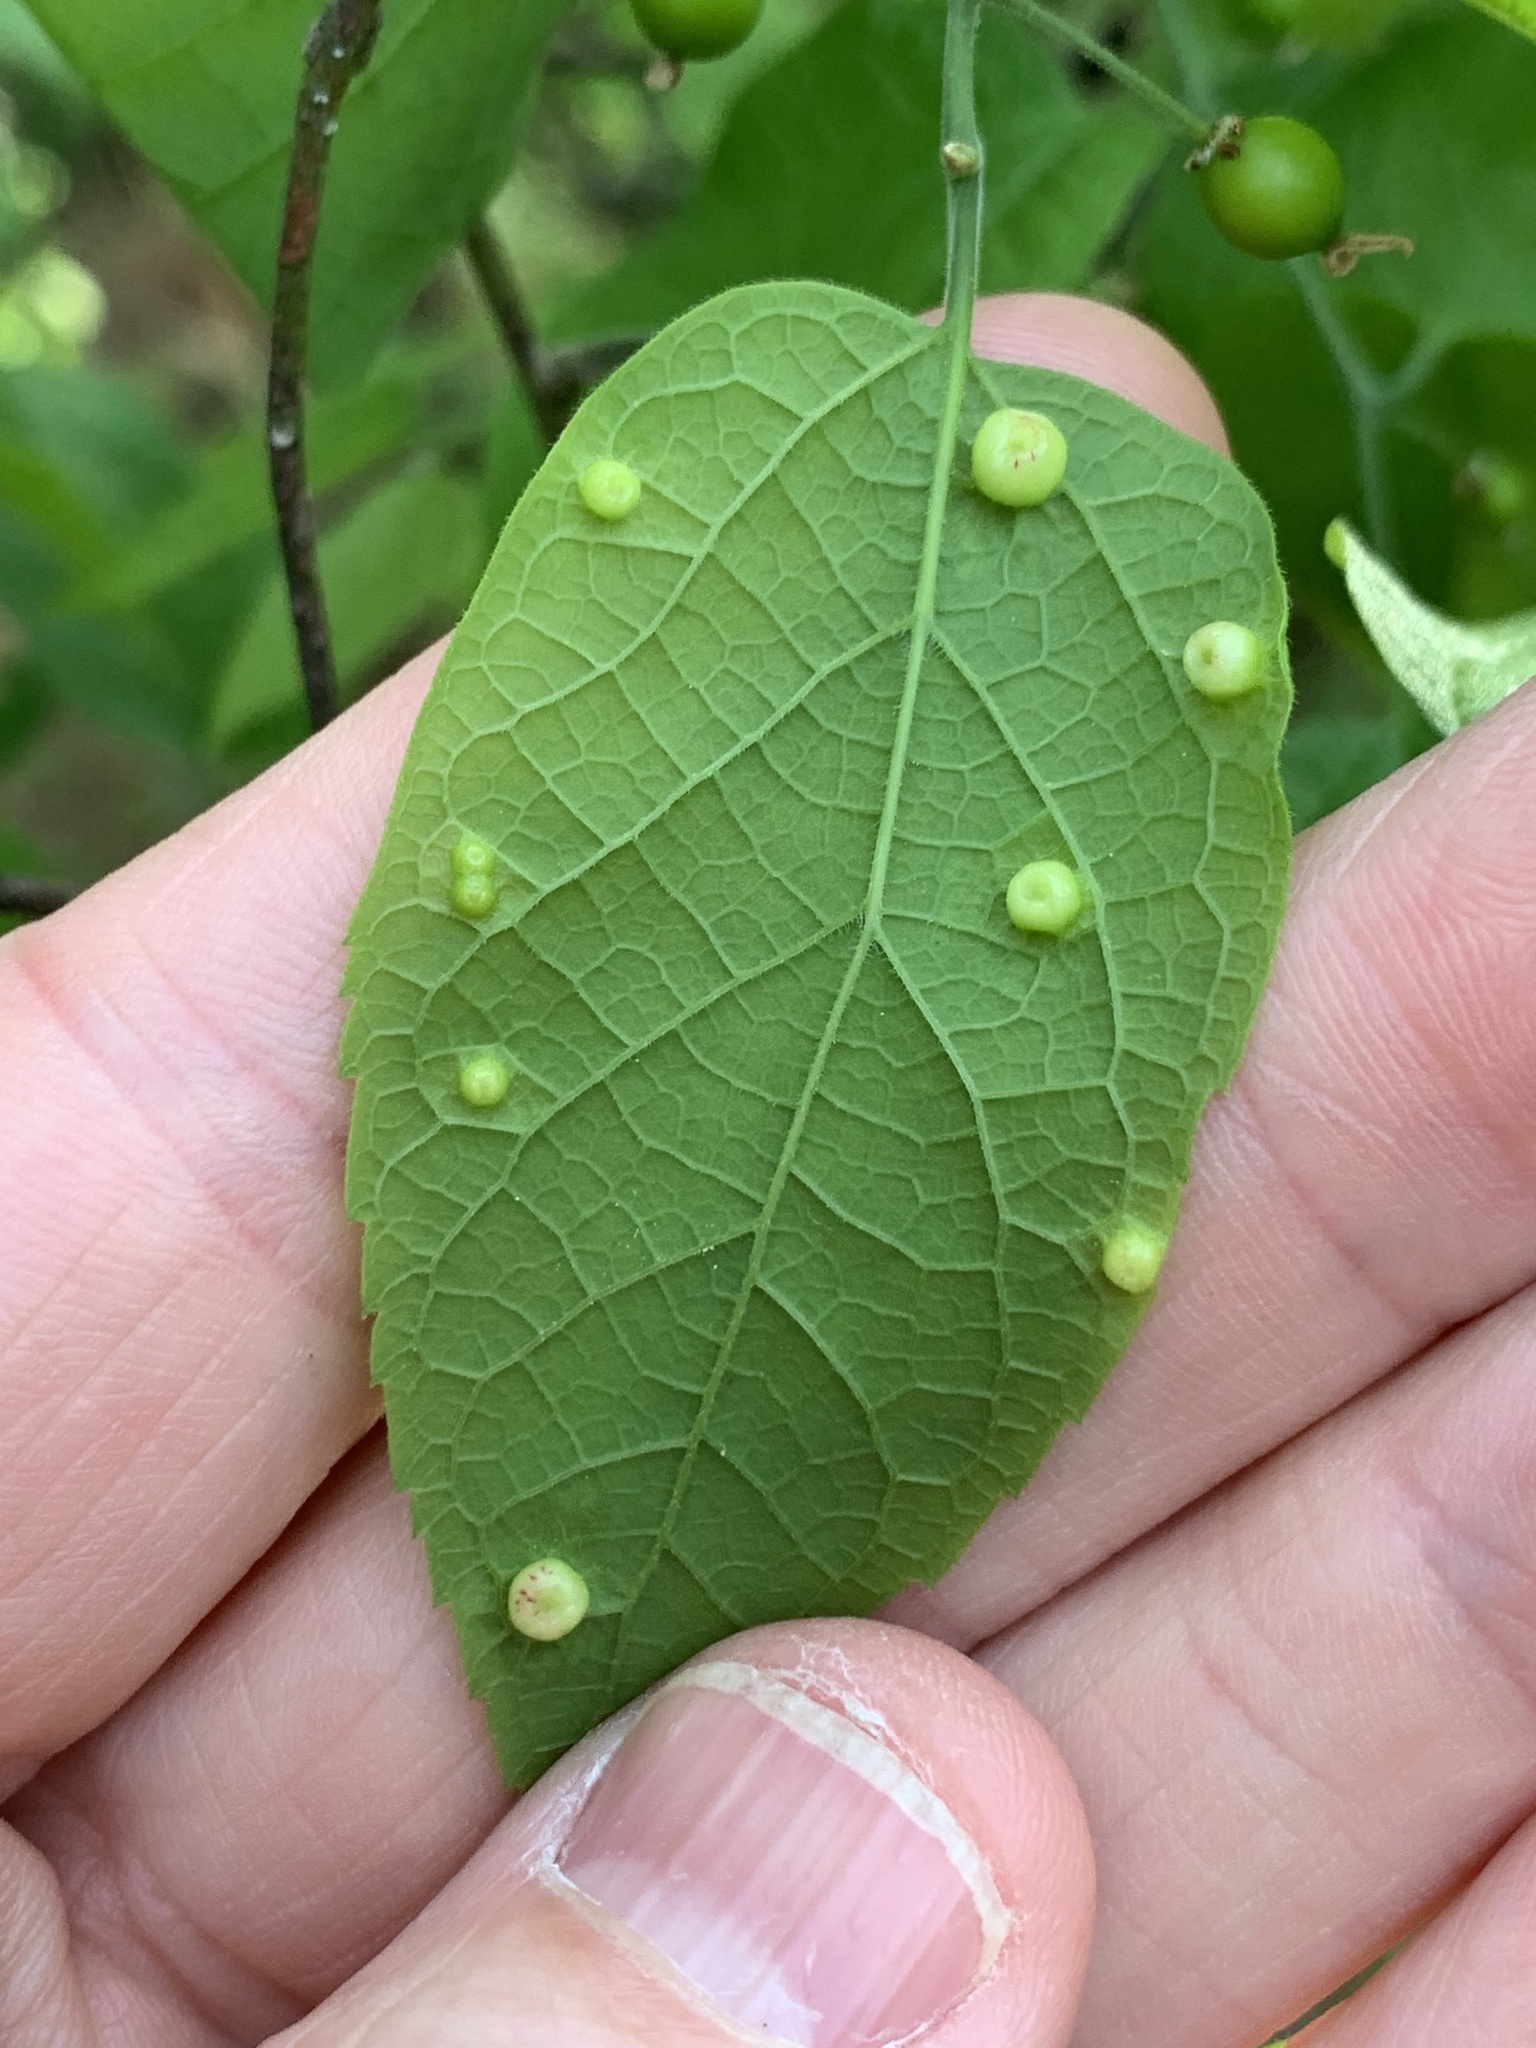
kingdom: Animalia
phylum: Arthropoda
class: Insecta
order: Hemiptera
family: Aphalaridae
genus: Pachypsylla
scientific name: Pachypsylla celtidismamma
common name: Hackberry nipplegall psyllid
